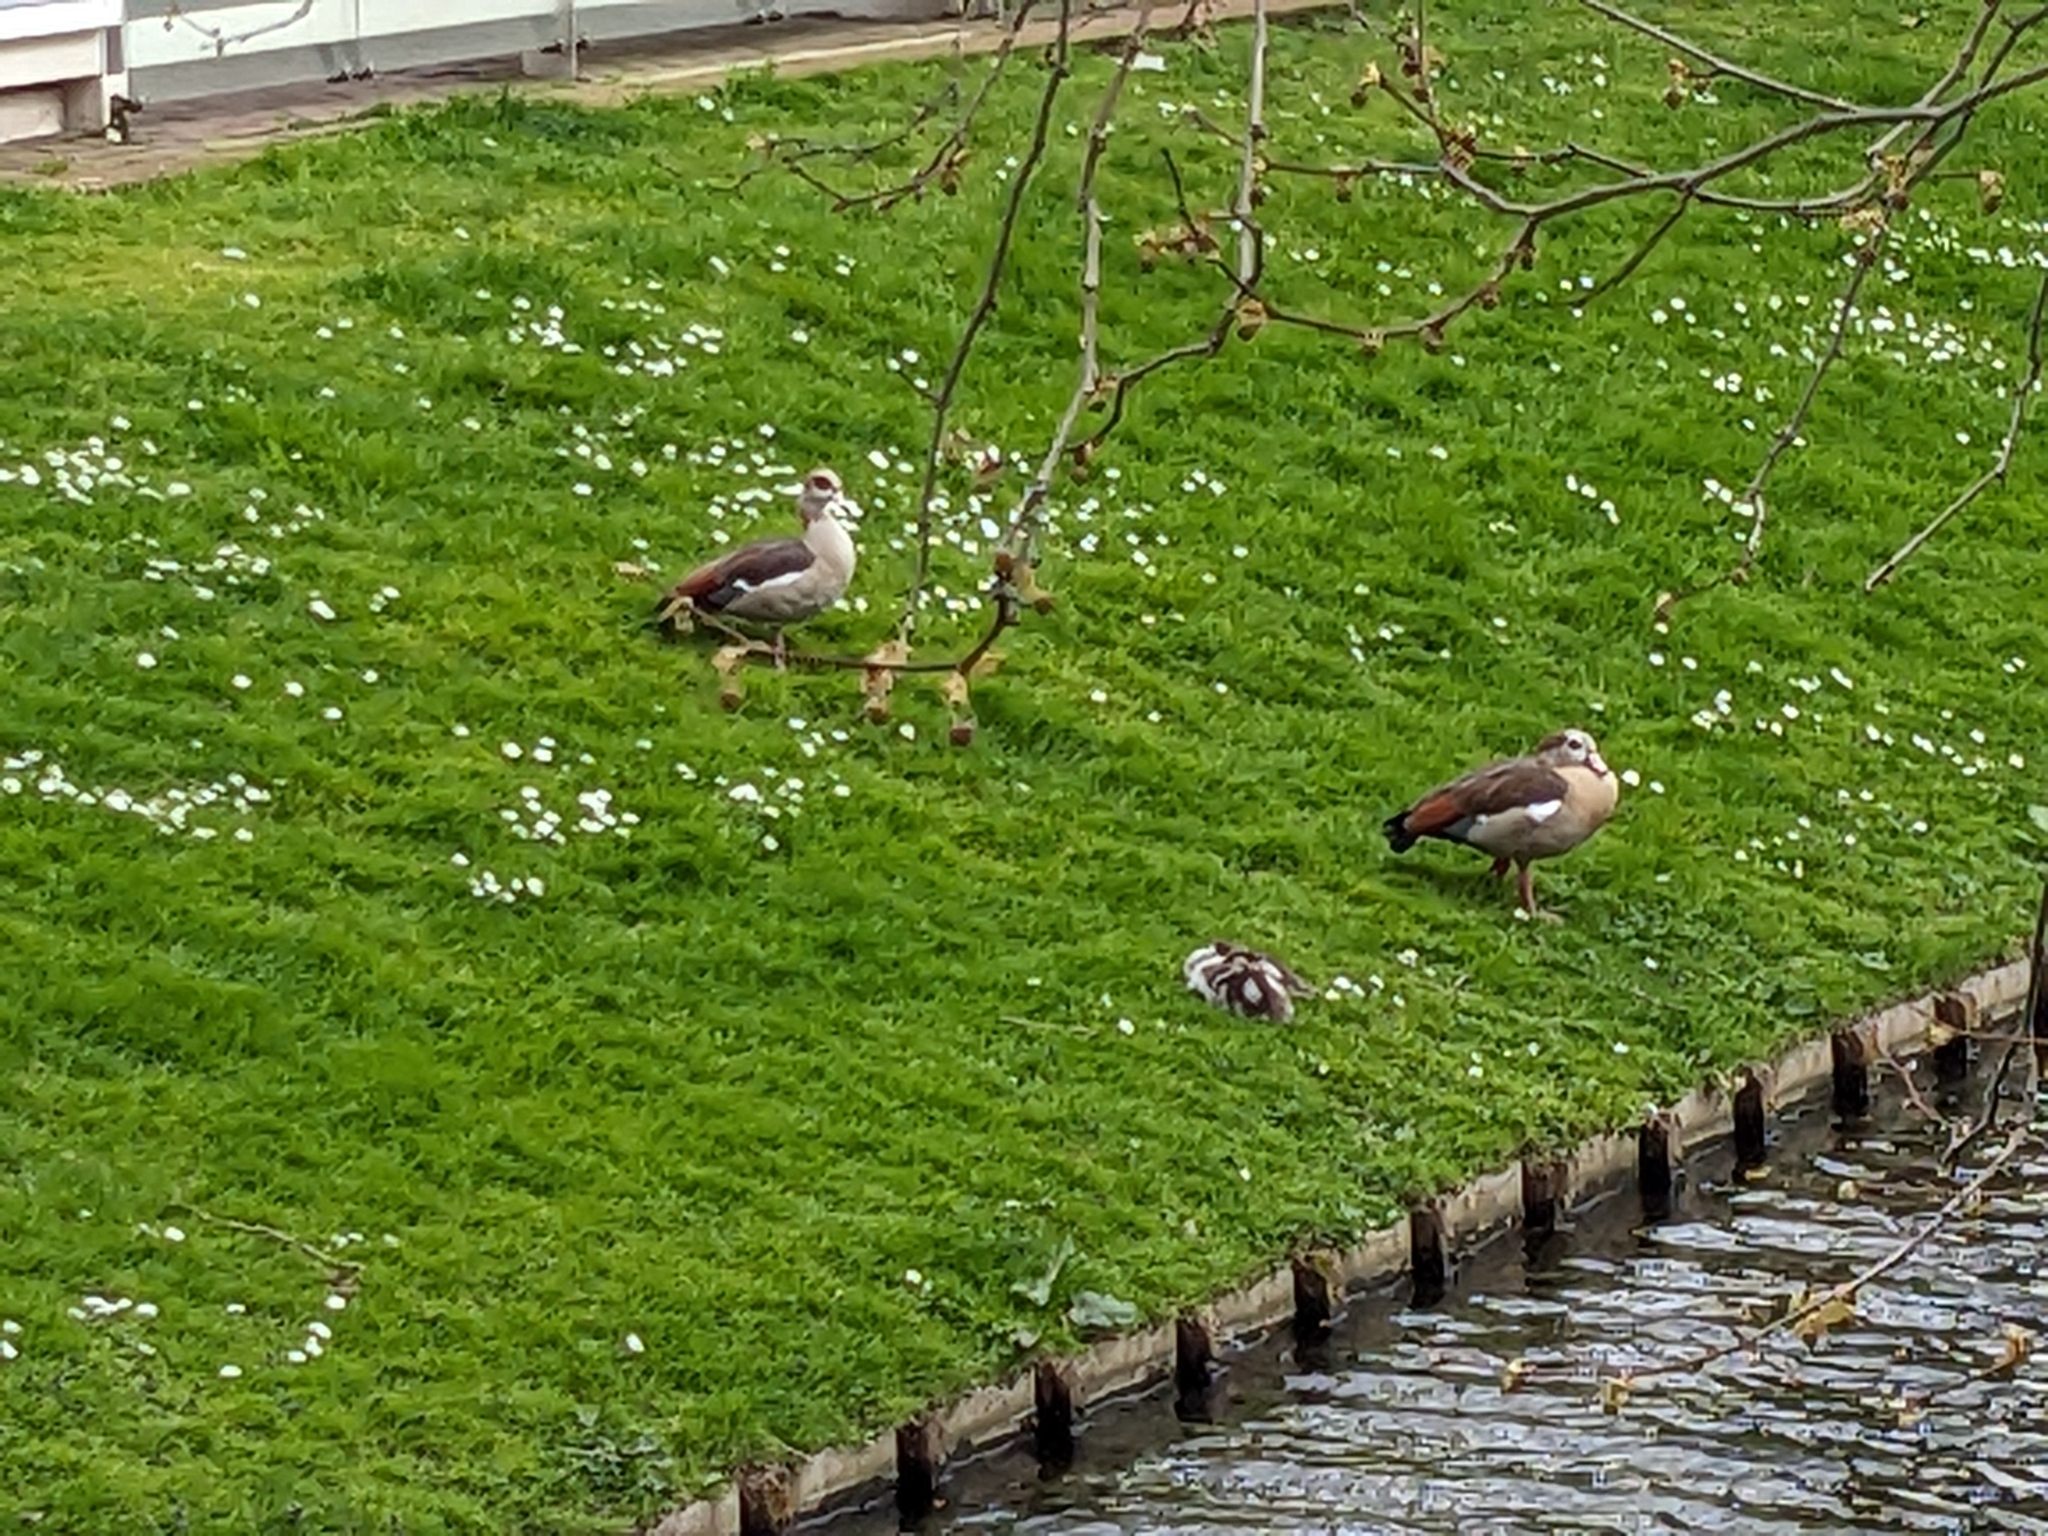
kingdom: Animalia
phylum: Chordata
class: Aves
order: Anseriformes
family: Anatidae
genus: Alopochen
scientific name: Alopochen aegyptiaca
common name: Egyptian goose
